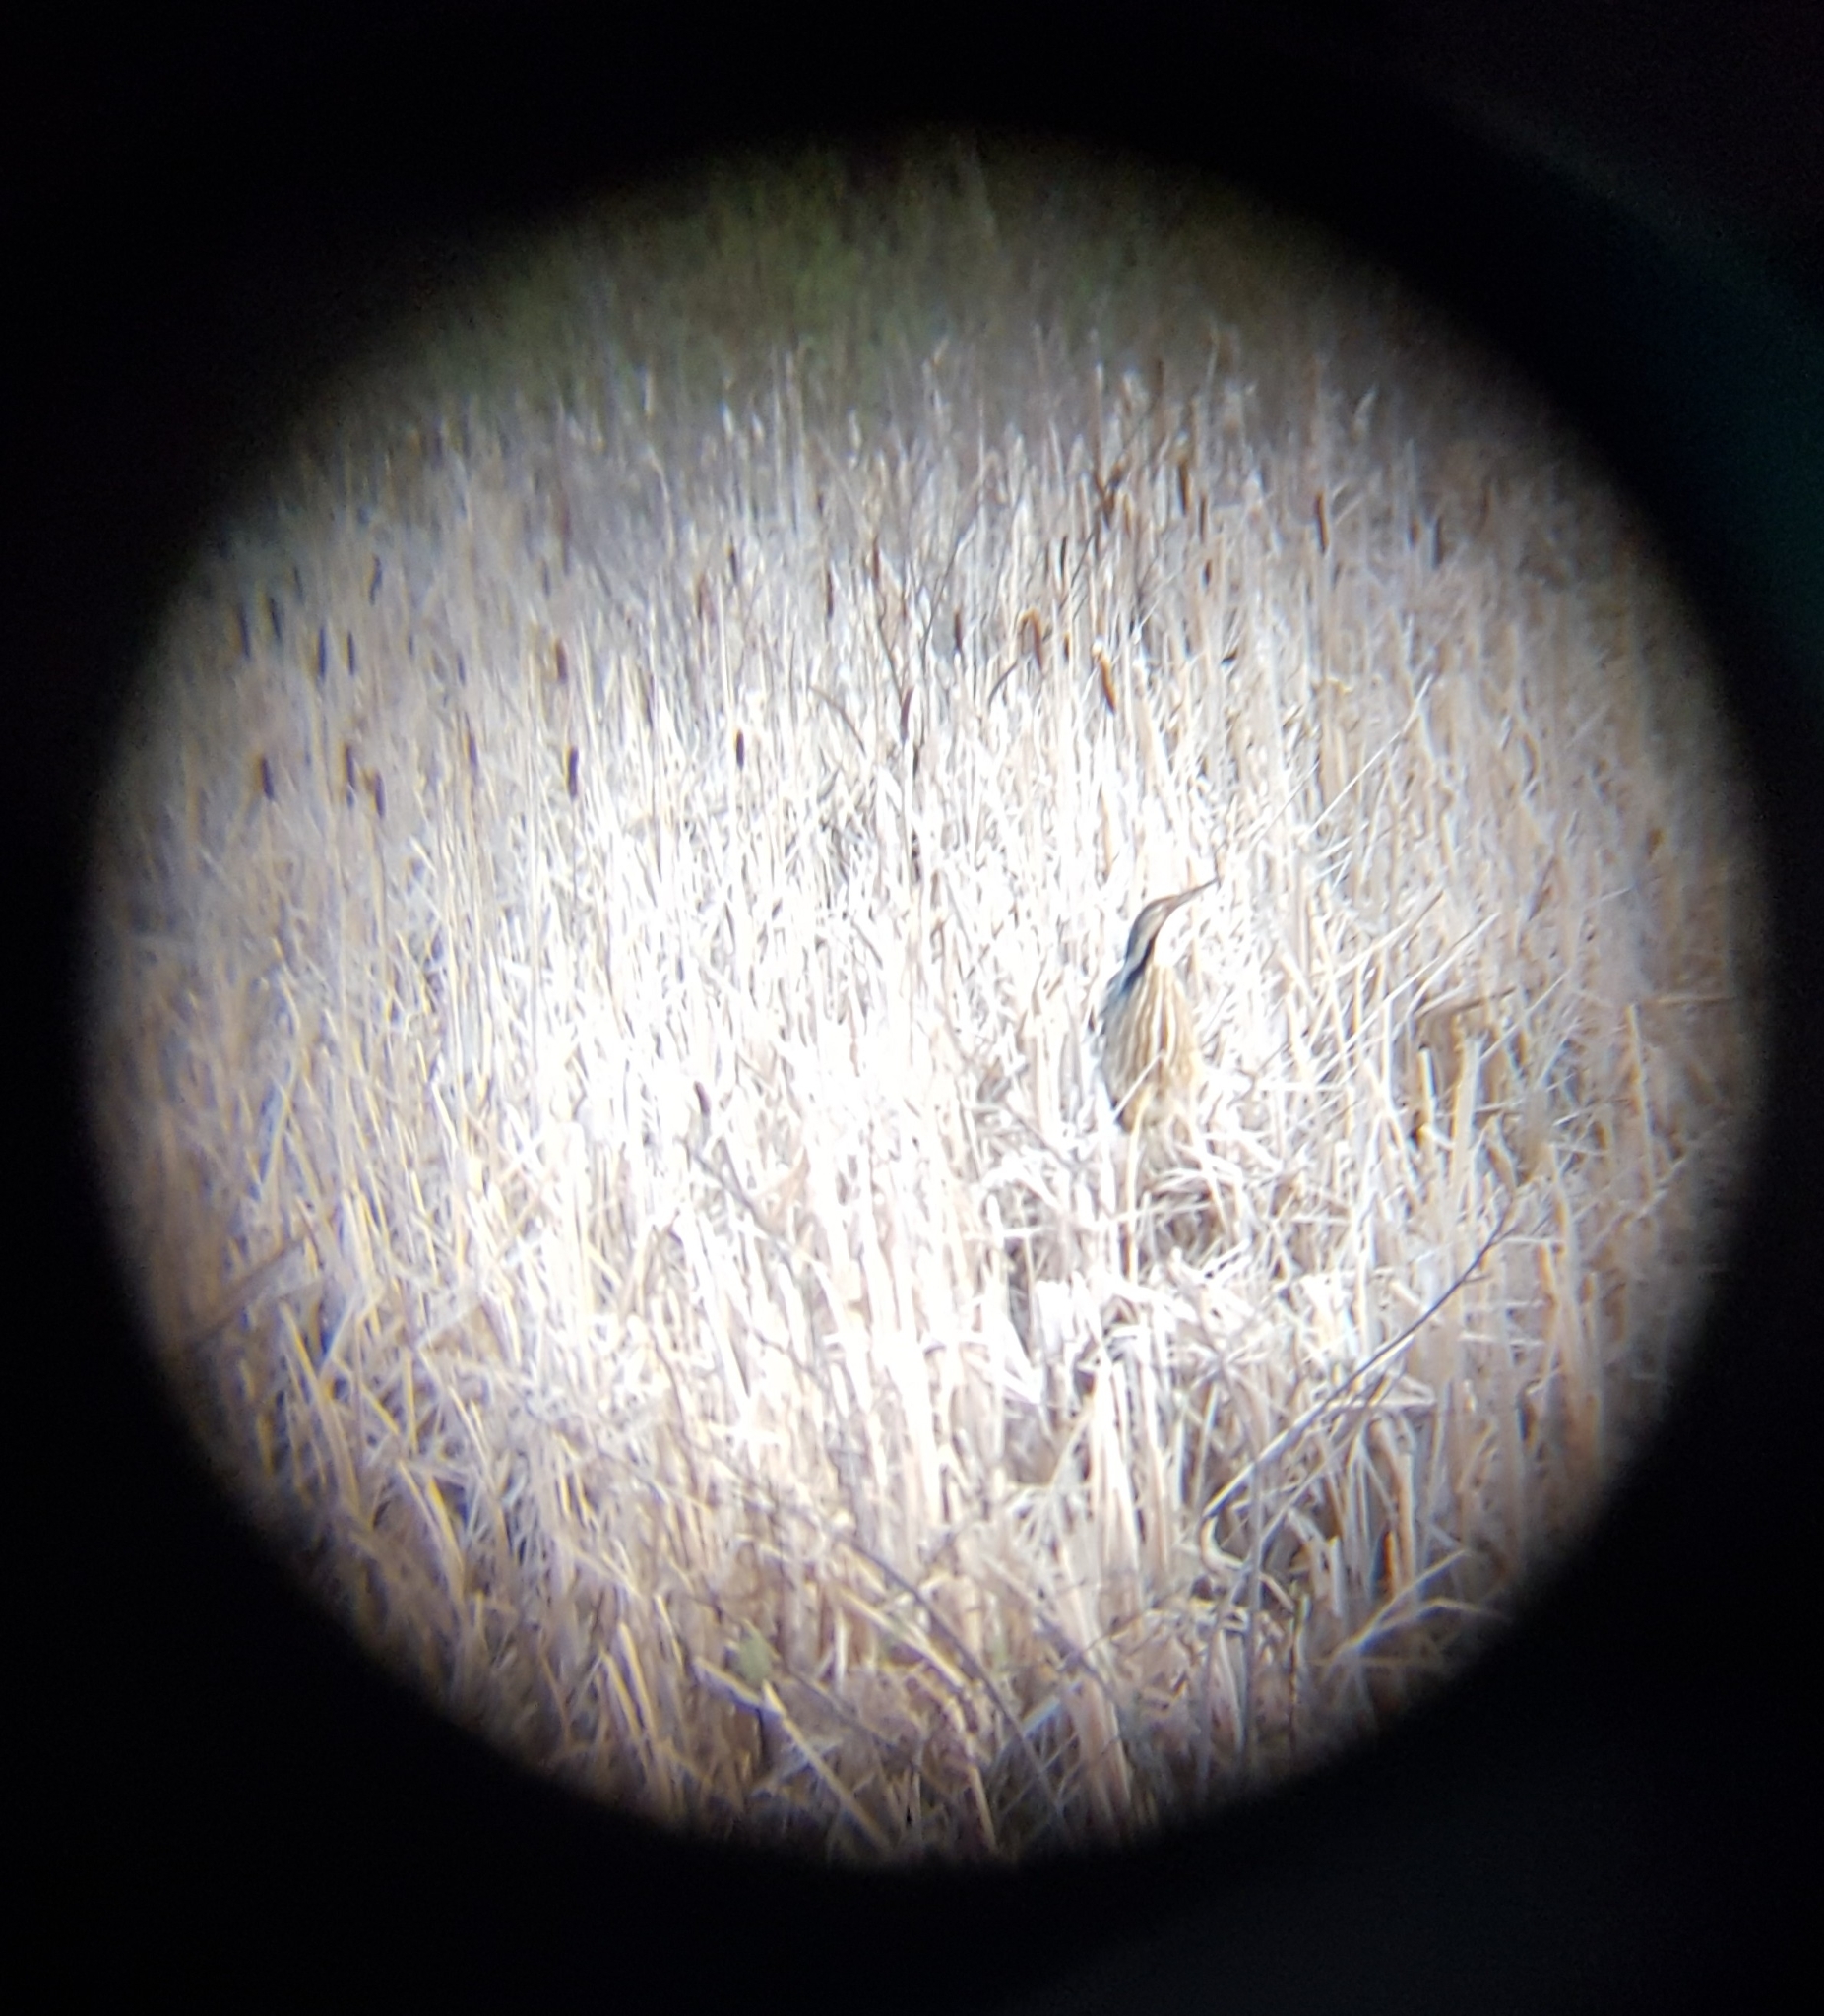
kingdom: Animalia
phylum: Chordata
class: Aves
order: Pelecaniformes
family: Ardeidae
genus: Botaurus
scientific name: Botaurus lentiginosus
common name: American bittern
